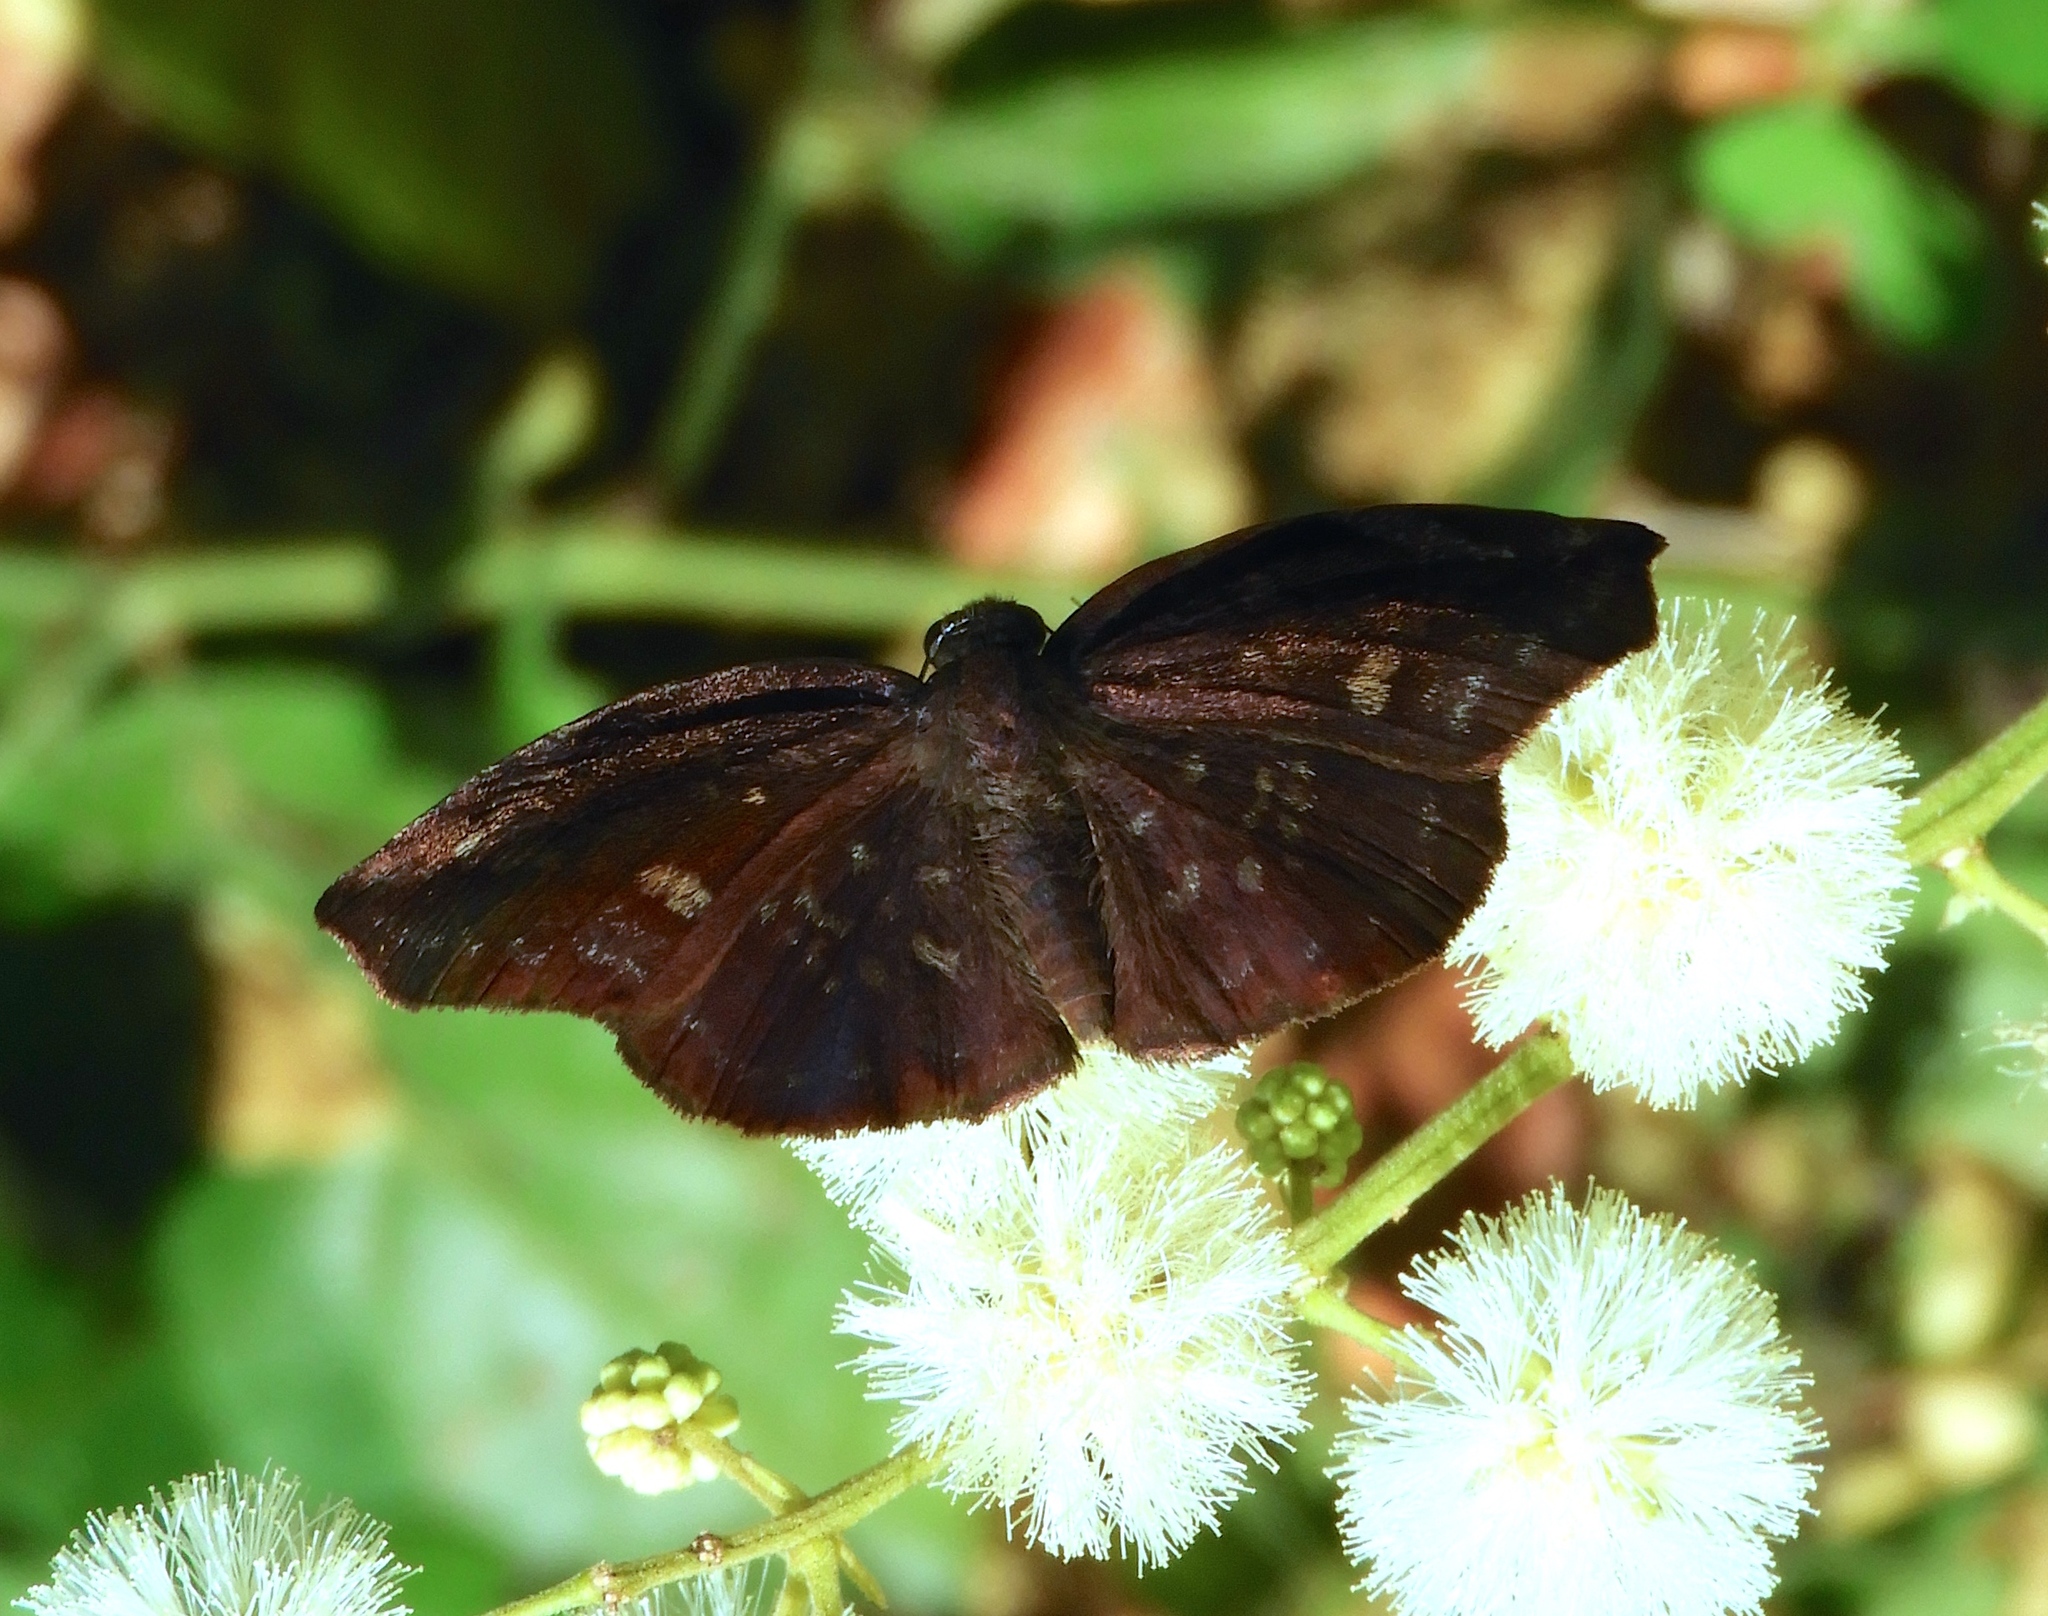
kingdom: Animalia
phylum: Arthropoda
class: Insecta
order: Lepidoptera
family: Hesperiidae
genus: Achlyodes
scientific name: Achlyodes thraso
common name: Sickle-winged skipper
